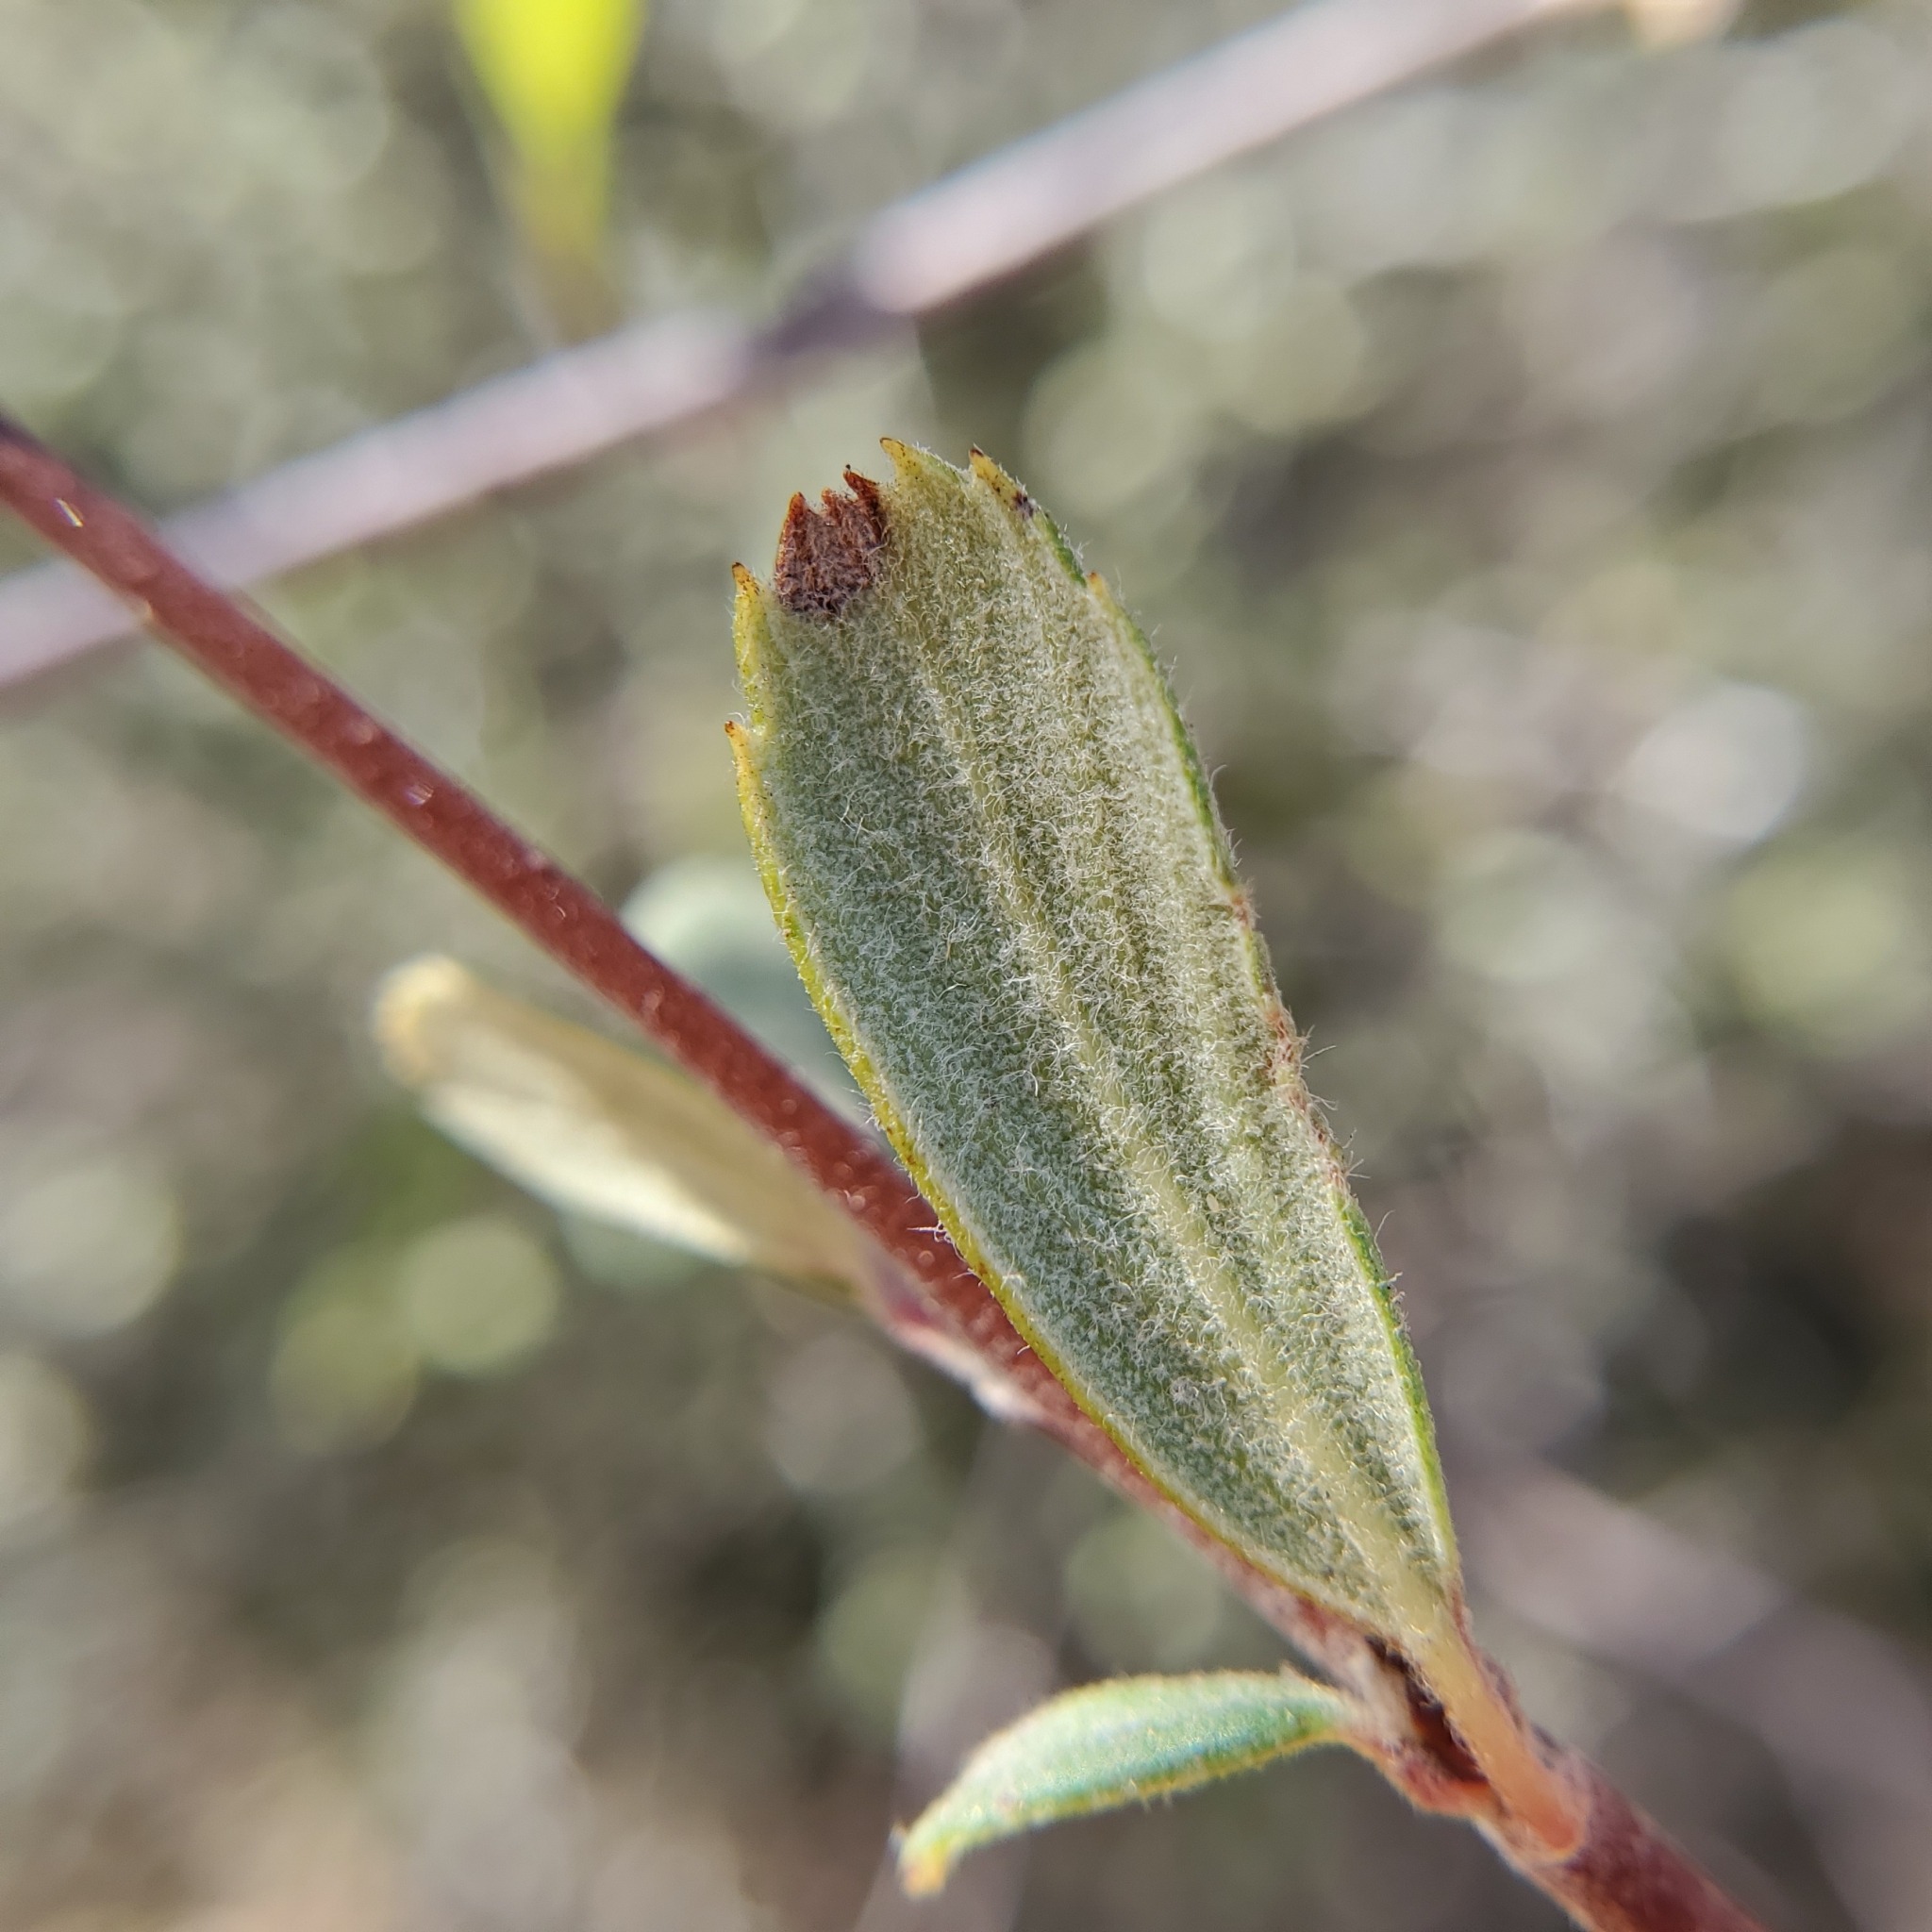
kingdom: Plantae
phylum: Tracheophyta
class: Magnoliopsida
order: Rosales
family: Rosaceae
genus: Cercocarpus
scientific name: Cercocarpus betuloides
